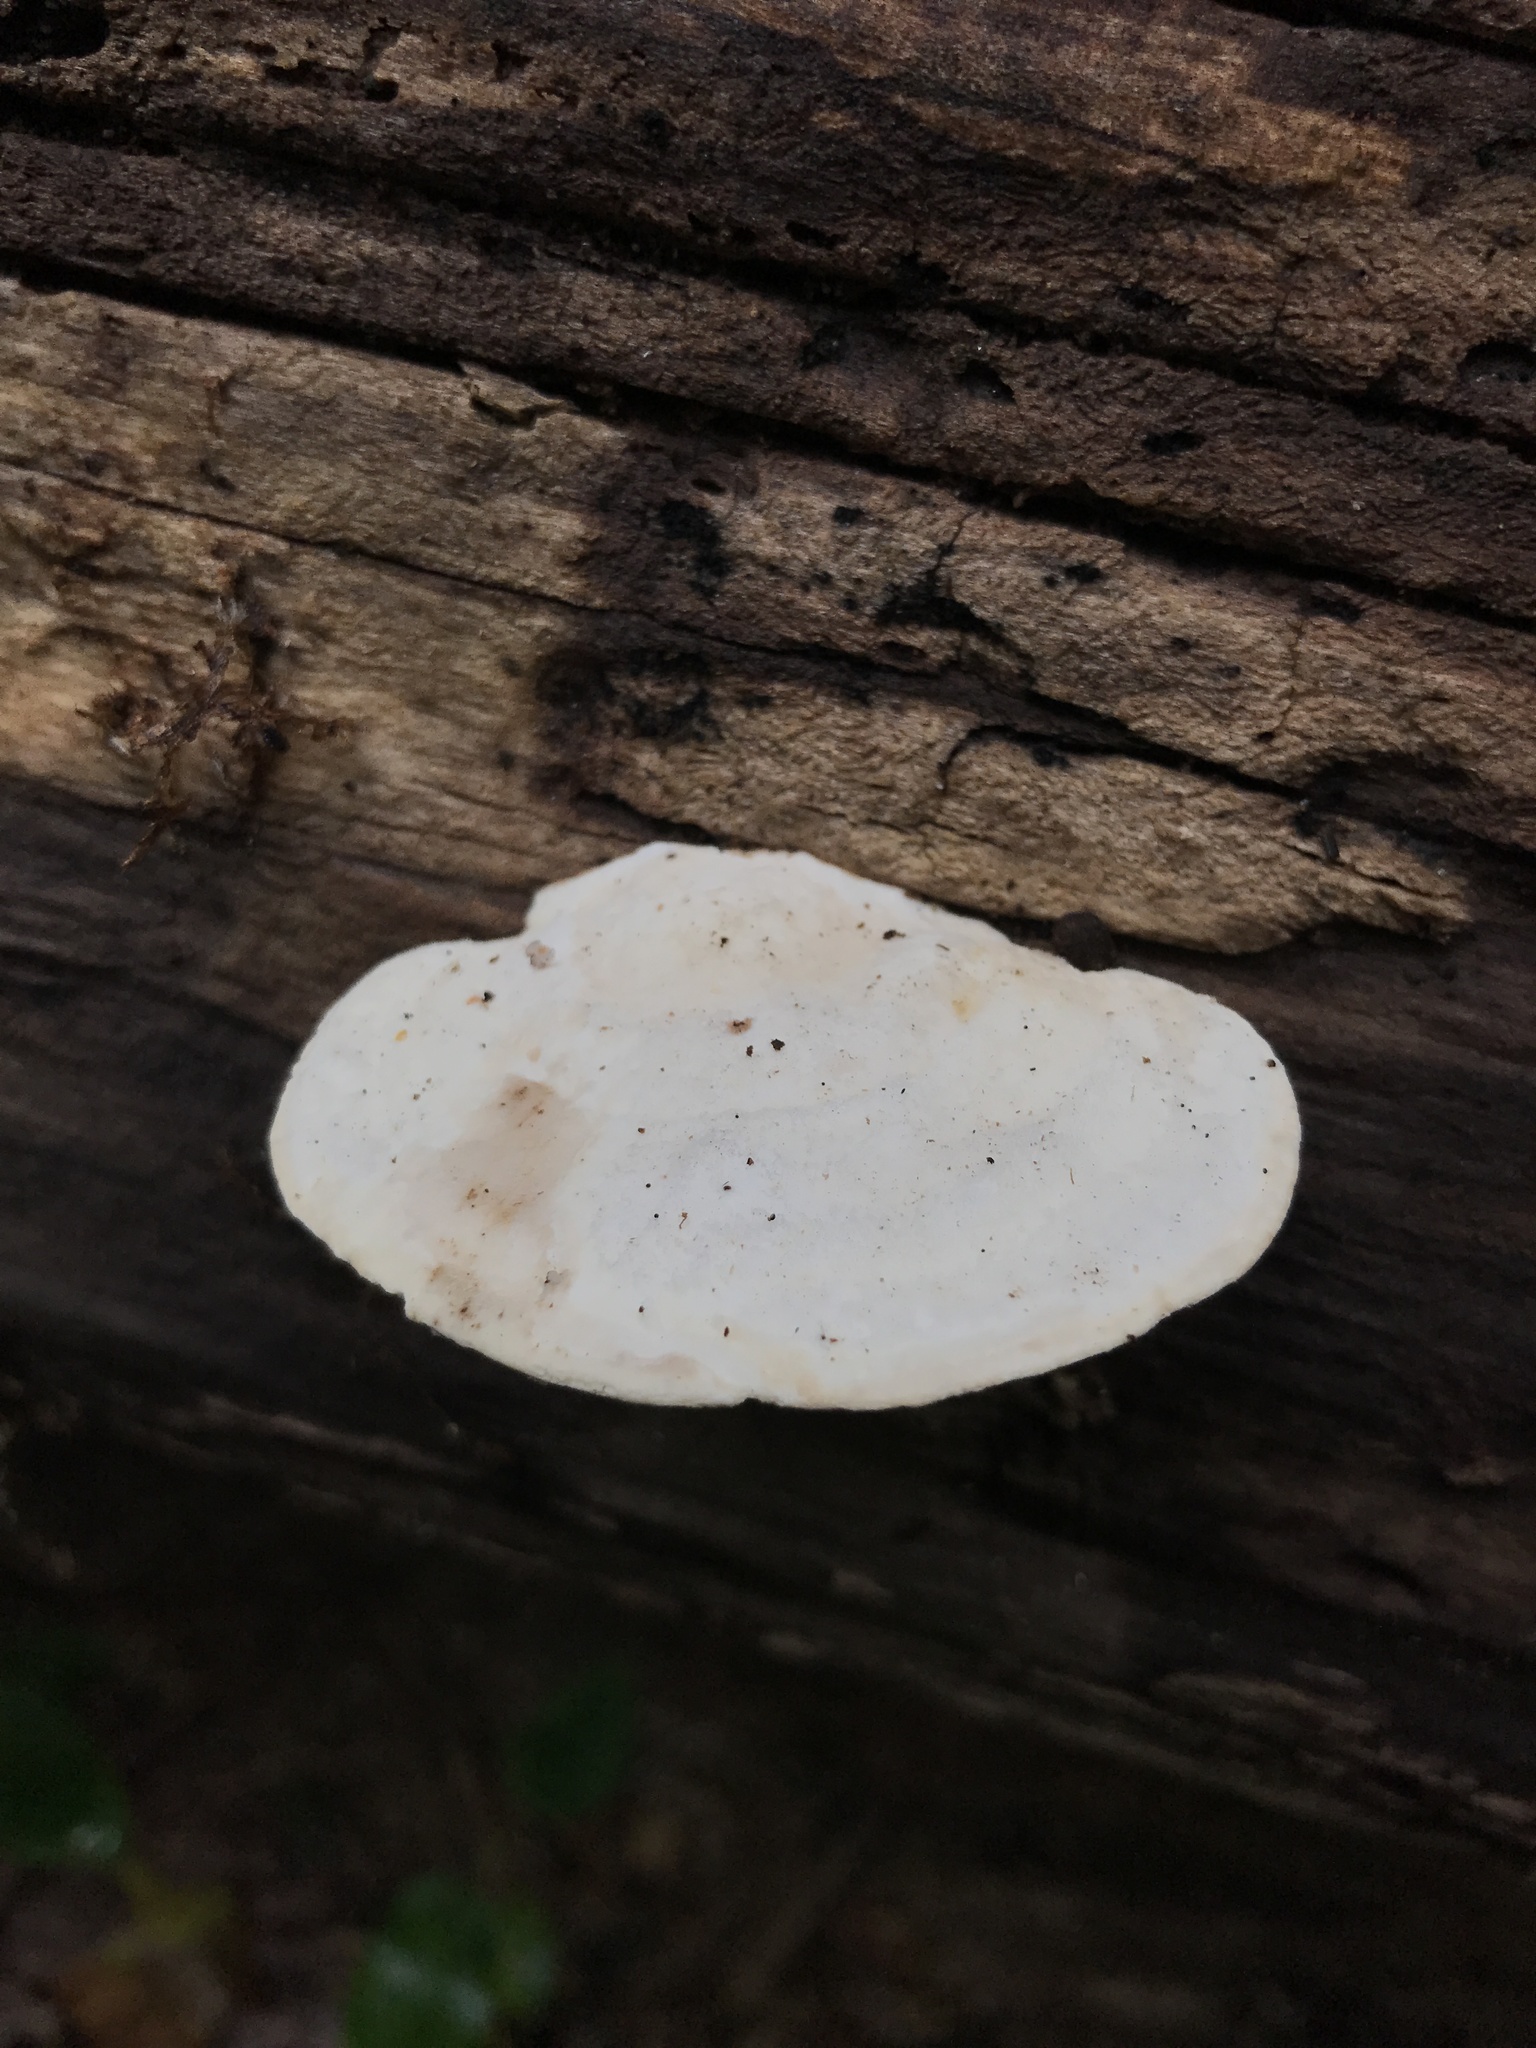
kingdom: Fungi
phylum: Basidiomycota
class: Agaricomycetes
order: Polyporales
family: Incrustoporiaceae
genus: Tyromyces
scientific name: Tyromyces chioneus
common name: White cheese polypore
